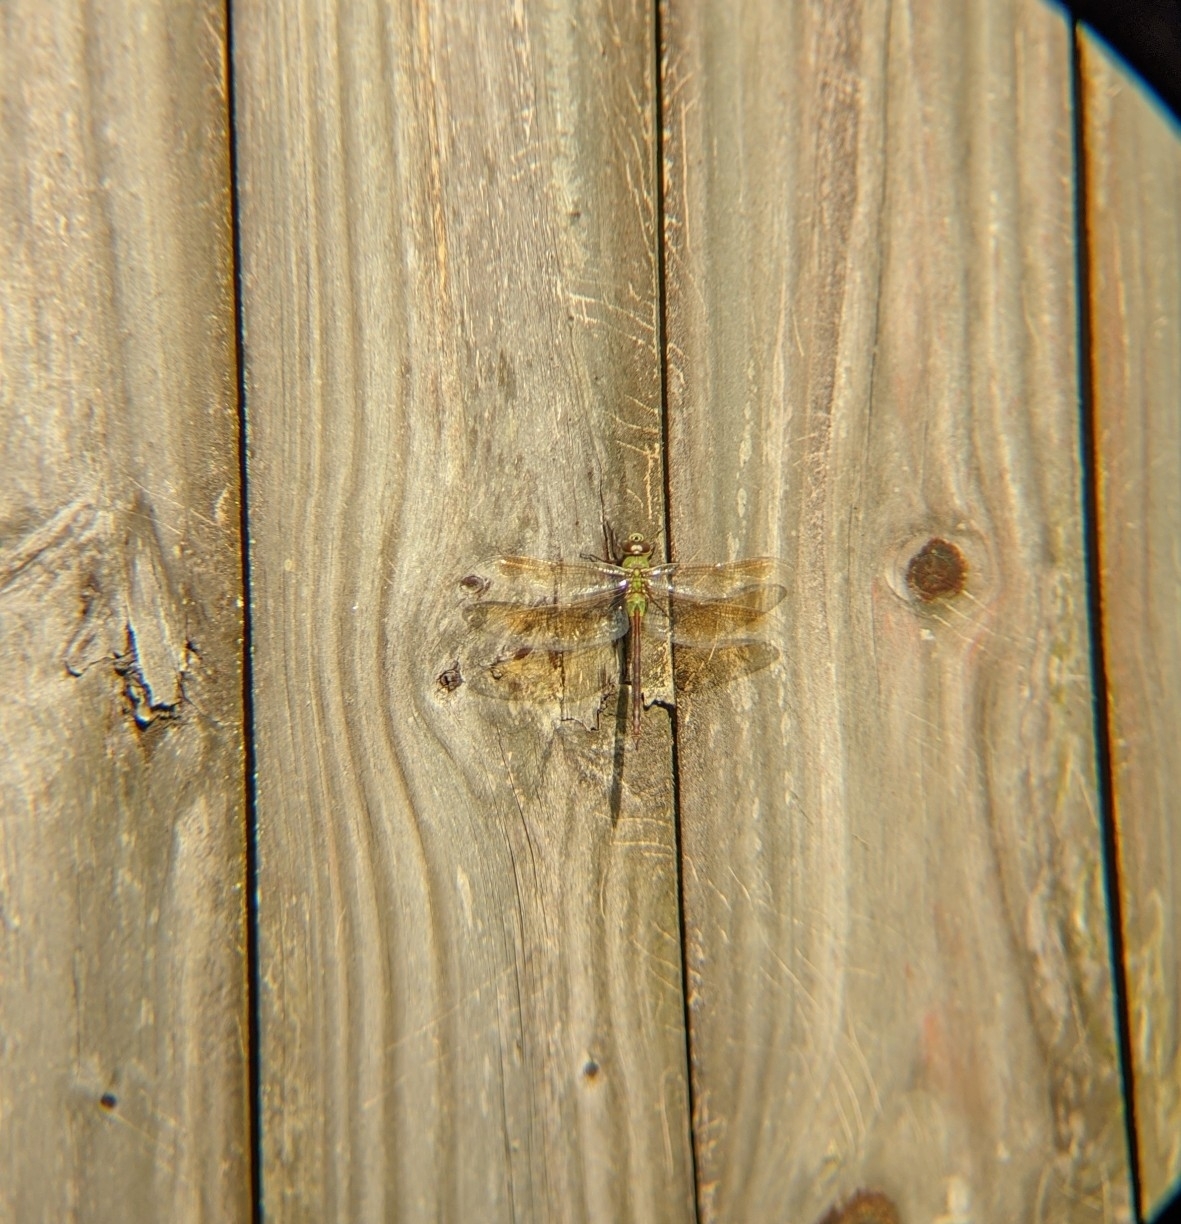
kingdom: Animalia
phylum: Arthropoda
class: Insecta
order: Odonata
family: Aeshnidae
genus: Anax
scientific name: Anax junius
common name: Common green darner
